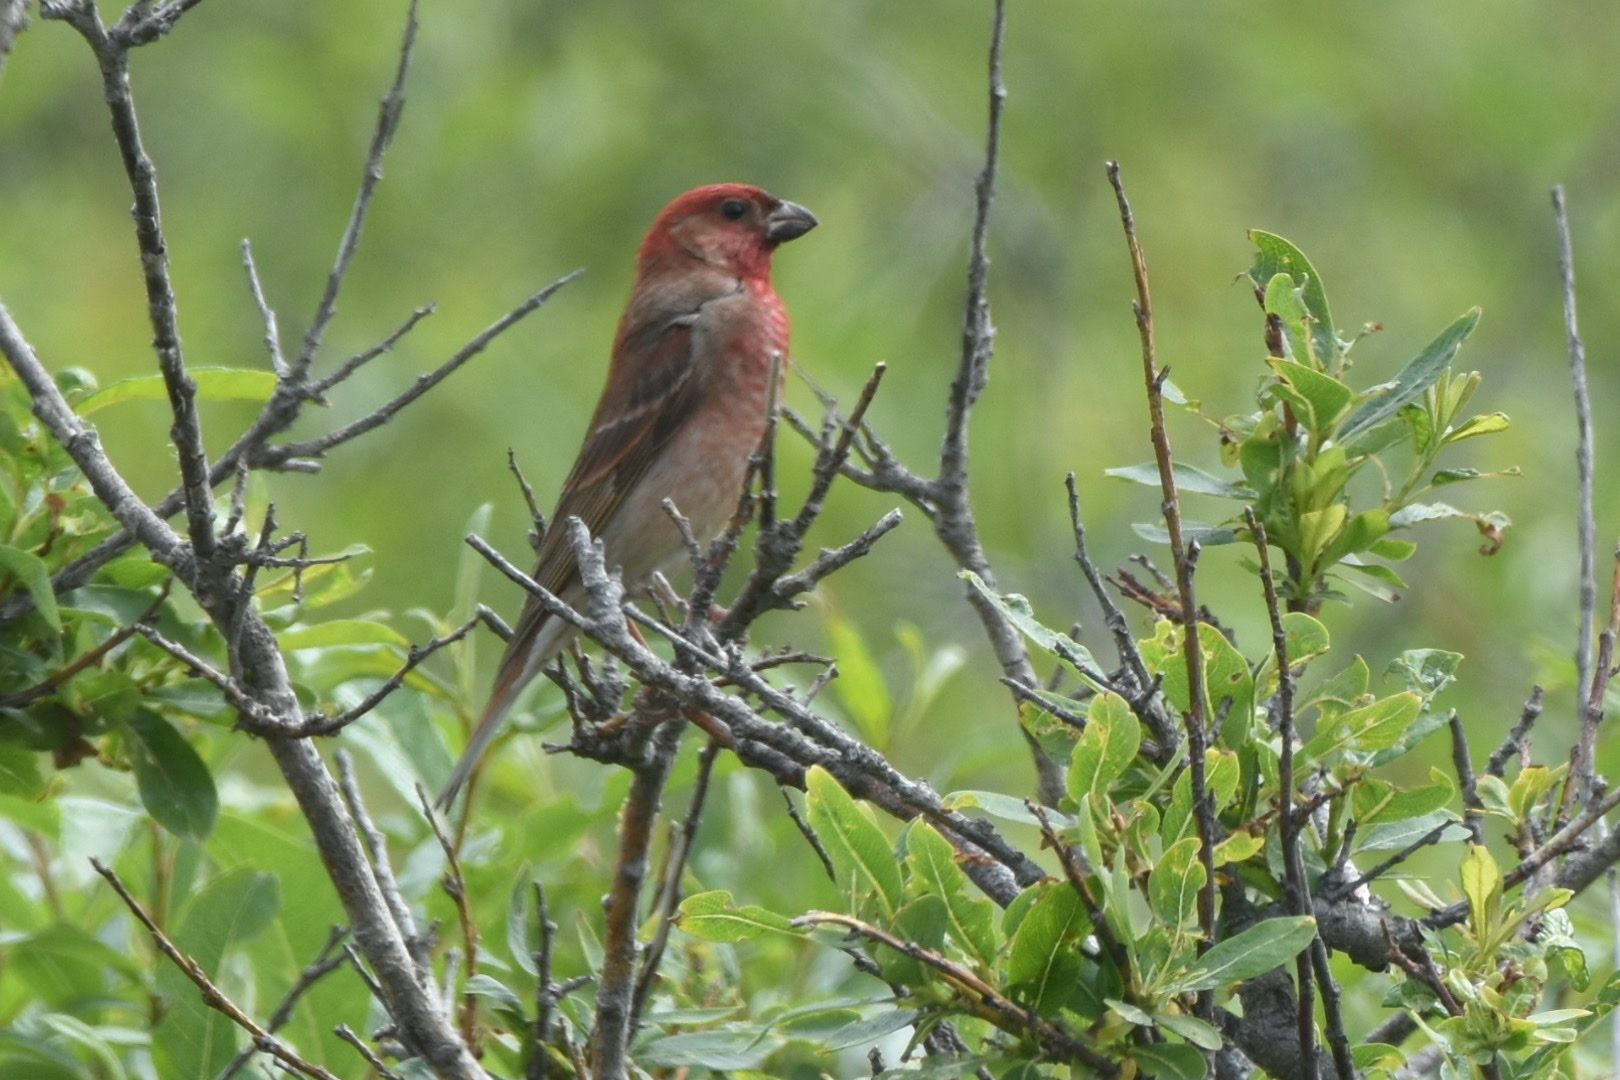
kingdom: Animalia
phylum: Chordata
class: Aves
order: Passeriformes
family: Fringillidae
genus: Carpodacus
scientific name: Carpodacus erythrinus
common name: Common rosefinch
